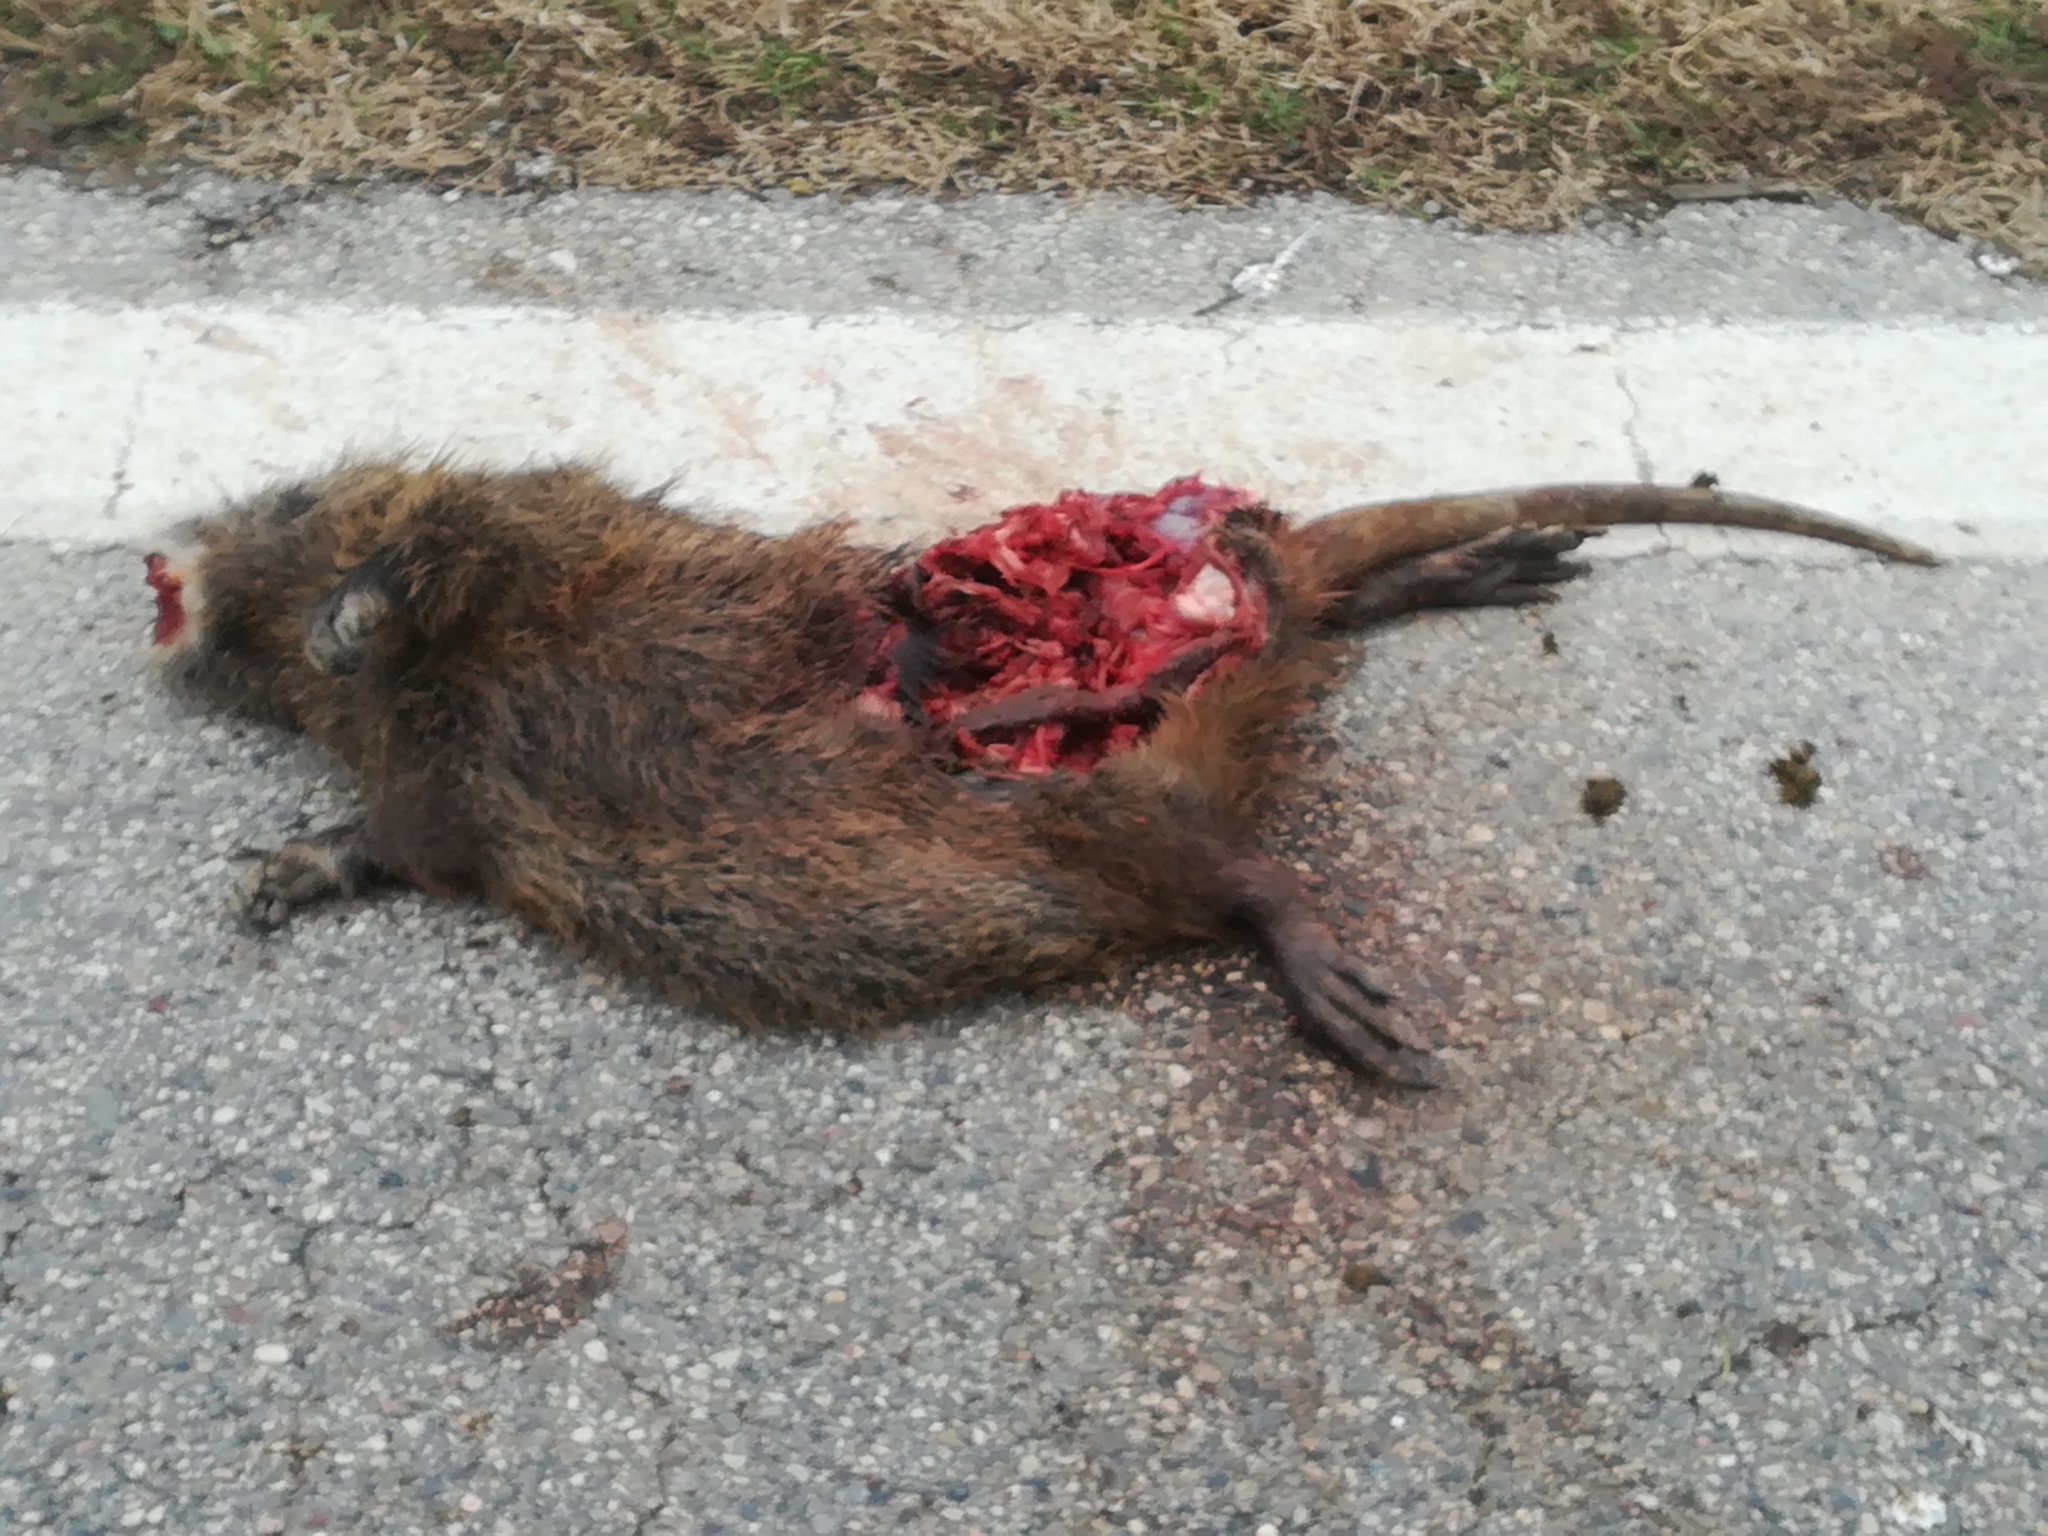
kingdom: Animalia
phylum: Chordata
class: Mammalia
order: Rodentia
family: Myocastoridae
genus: Myocastor
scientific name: Myocastor coypus
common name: Coypu
